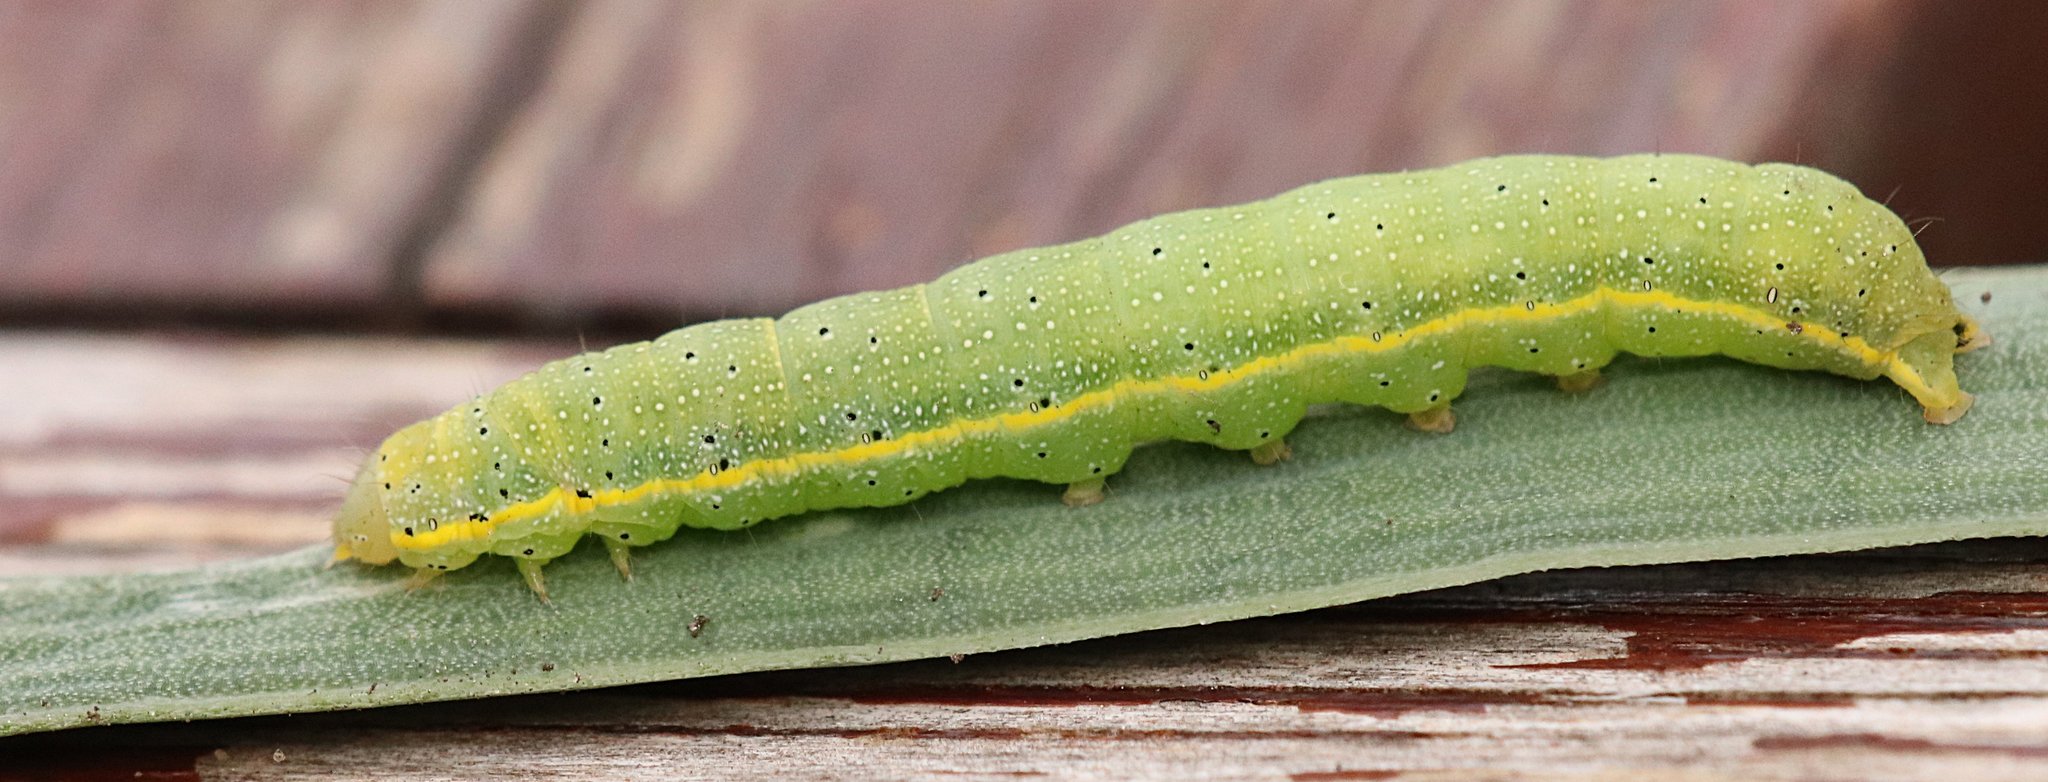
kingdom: Animalia
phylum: Arthropoda
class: Insecta
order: Lepidoptera
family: Noctuidae
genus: Lacanobia
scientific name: Lacanobia oleracea
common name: Bright-line brown-eye
